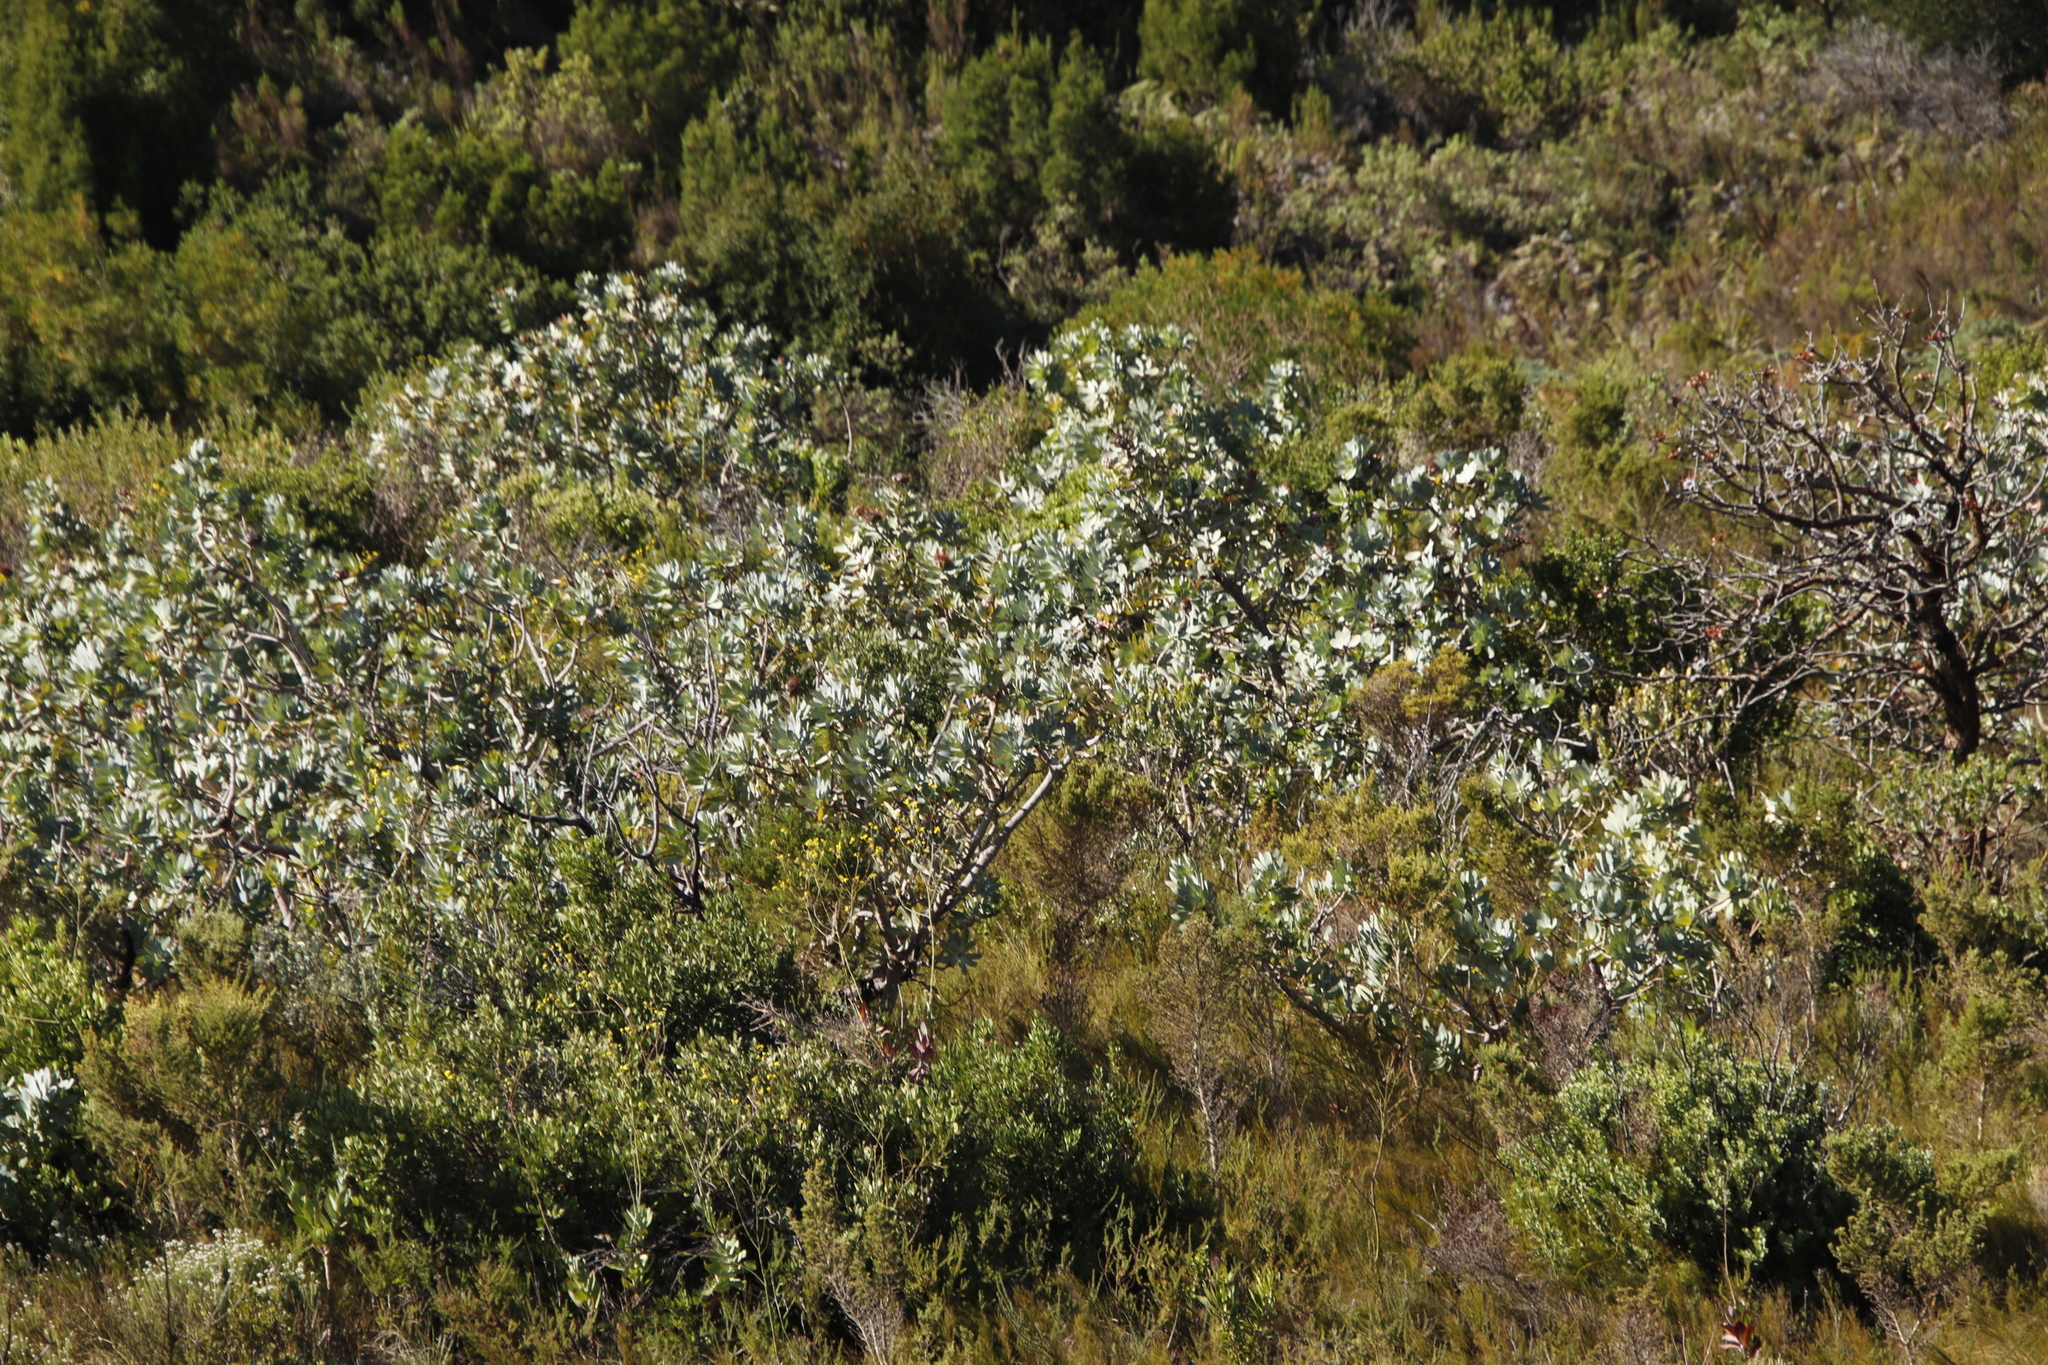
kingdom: Plantae
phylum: Tracheophyta
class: Magnoliopsida
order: Proteales
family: Proteaceae
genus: Protea
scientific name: Protea nitida
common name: Tree protea
